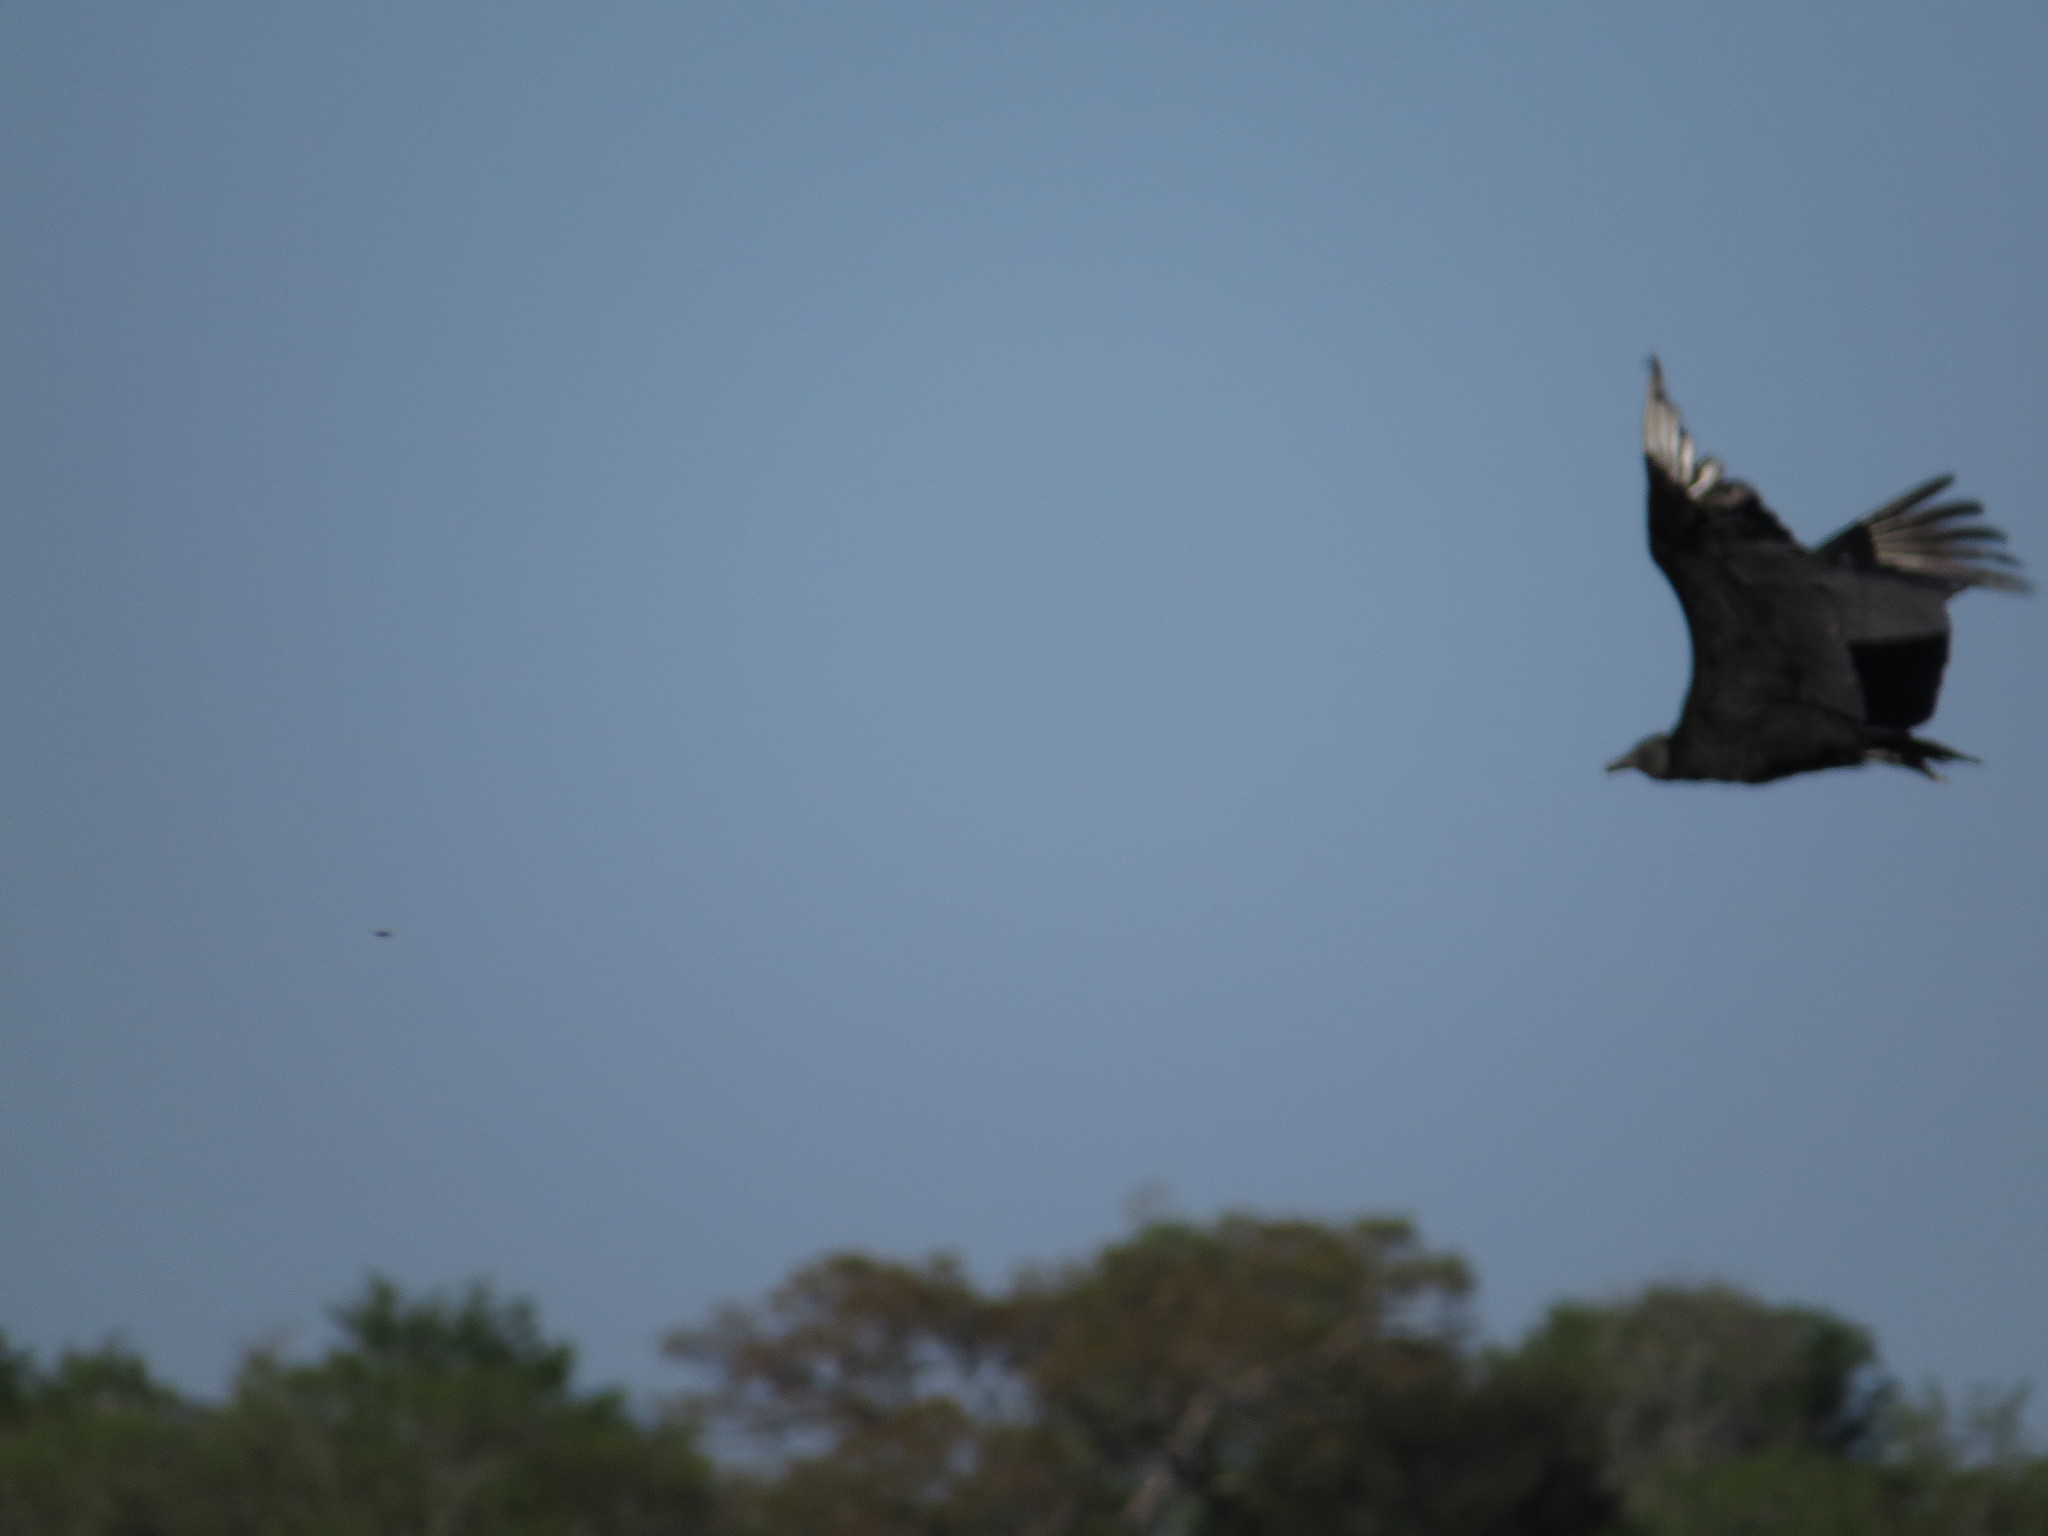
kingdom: Animalia
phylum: Chordata
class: Aves
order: Accipitriformes
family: Cathartidae
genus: Coragyps
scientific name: Coragyps atratus
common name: Black vulture
